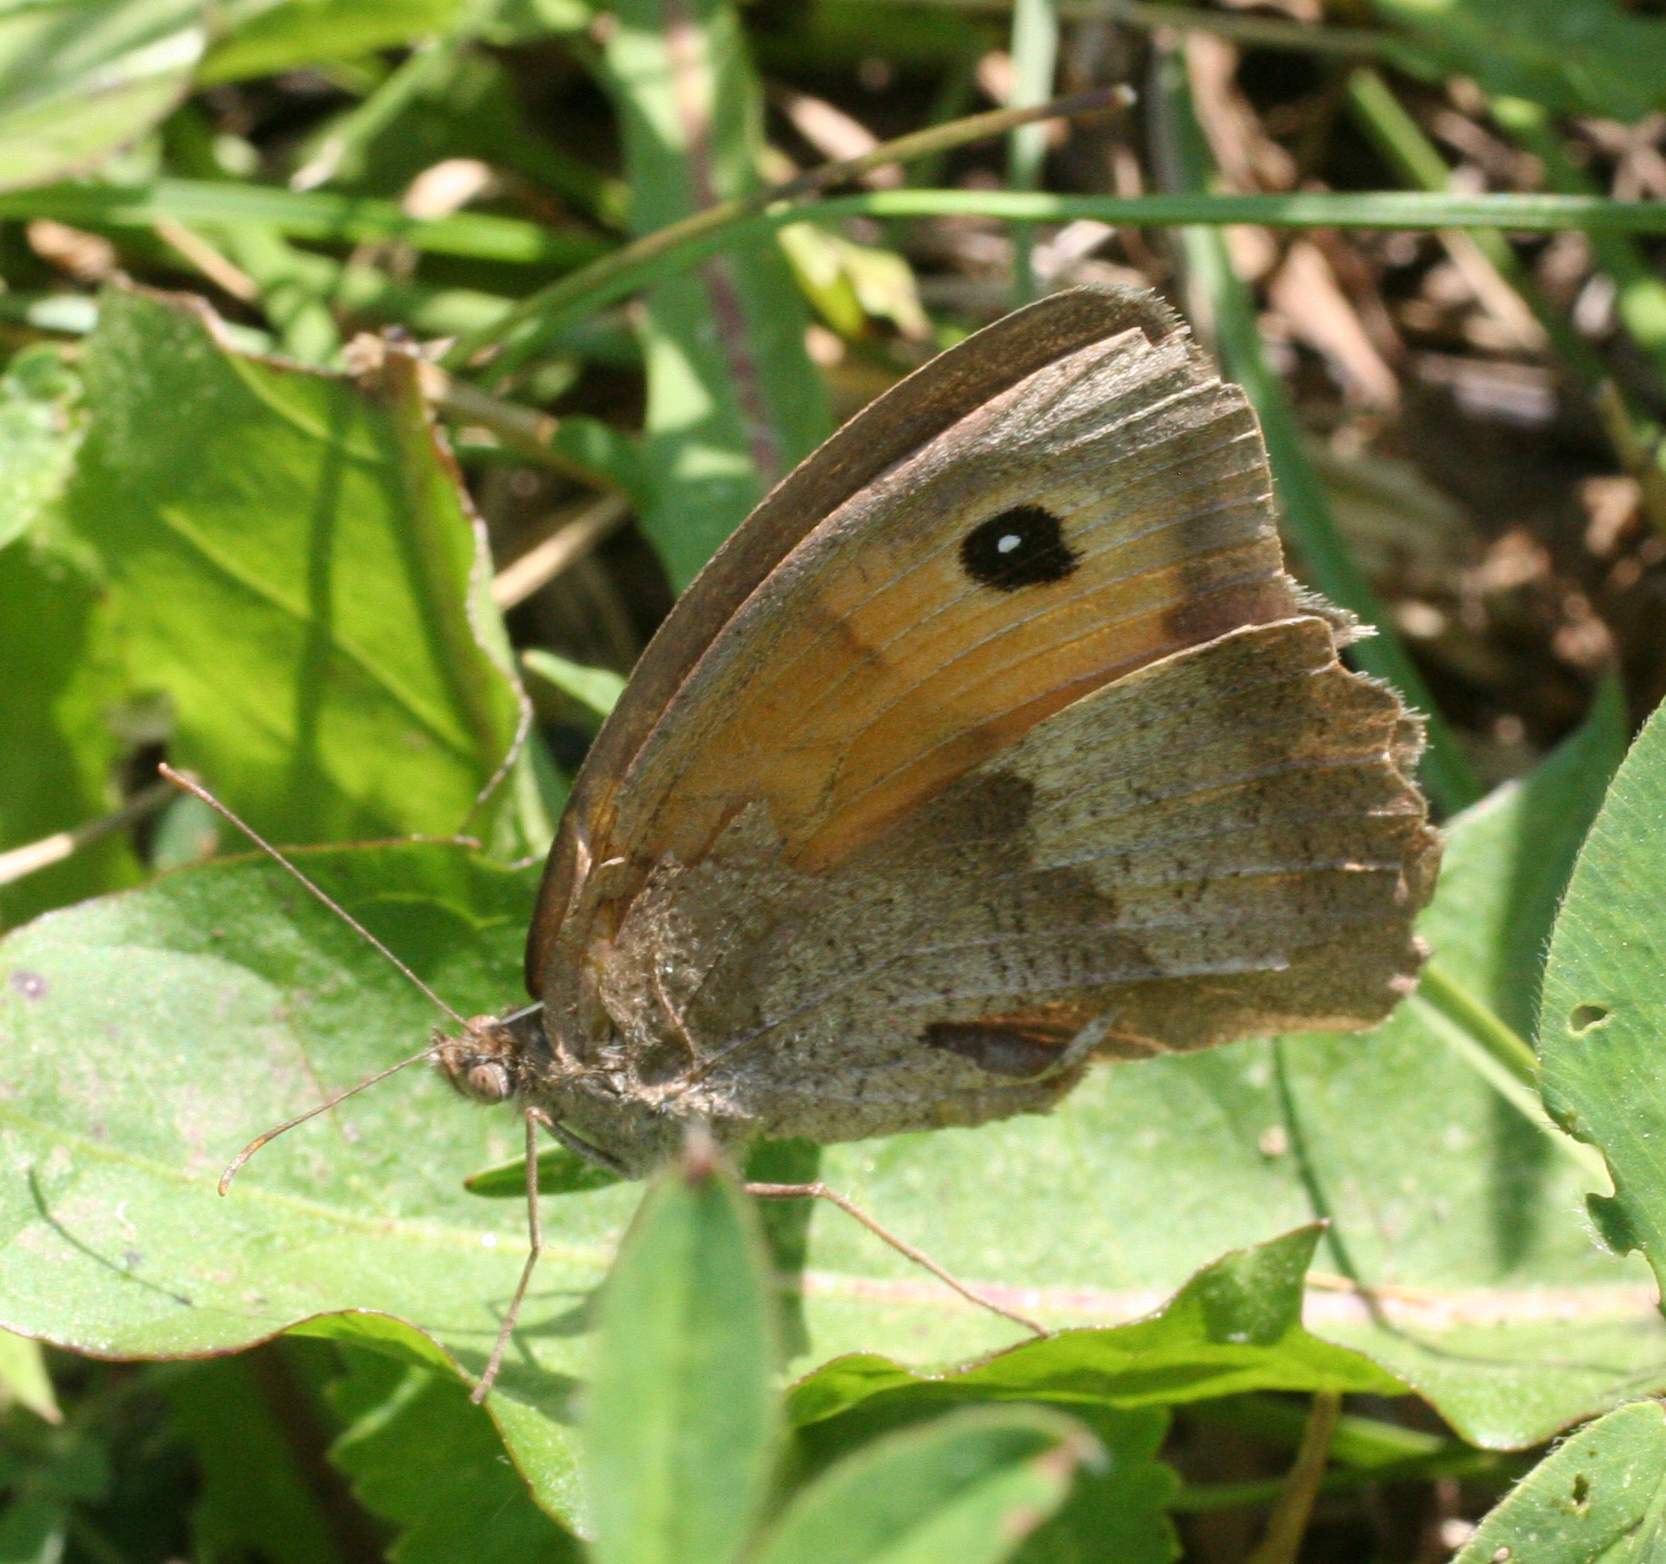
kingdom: Animalia
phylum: Arthropoda
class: Insecta
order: Lepidoptera
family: Nymphalidae
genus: Maniola
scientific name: Maniola jurtina
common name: Meadow brown
